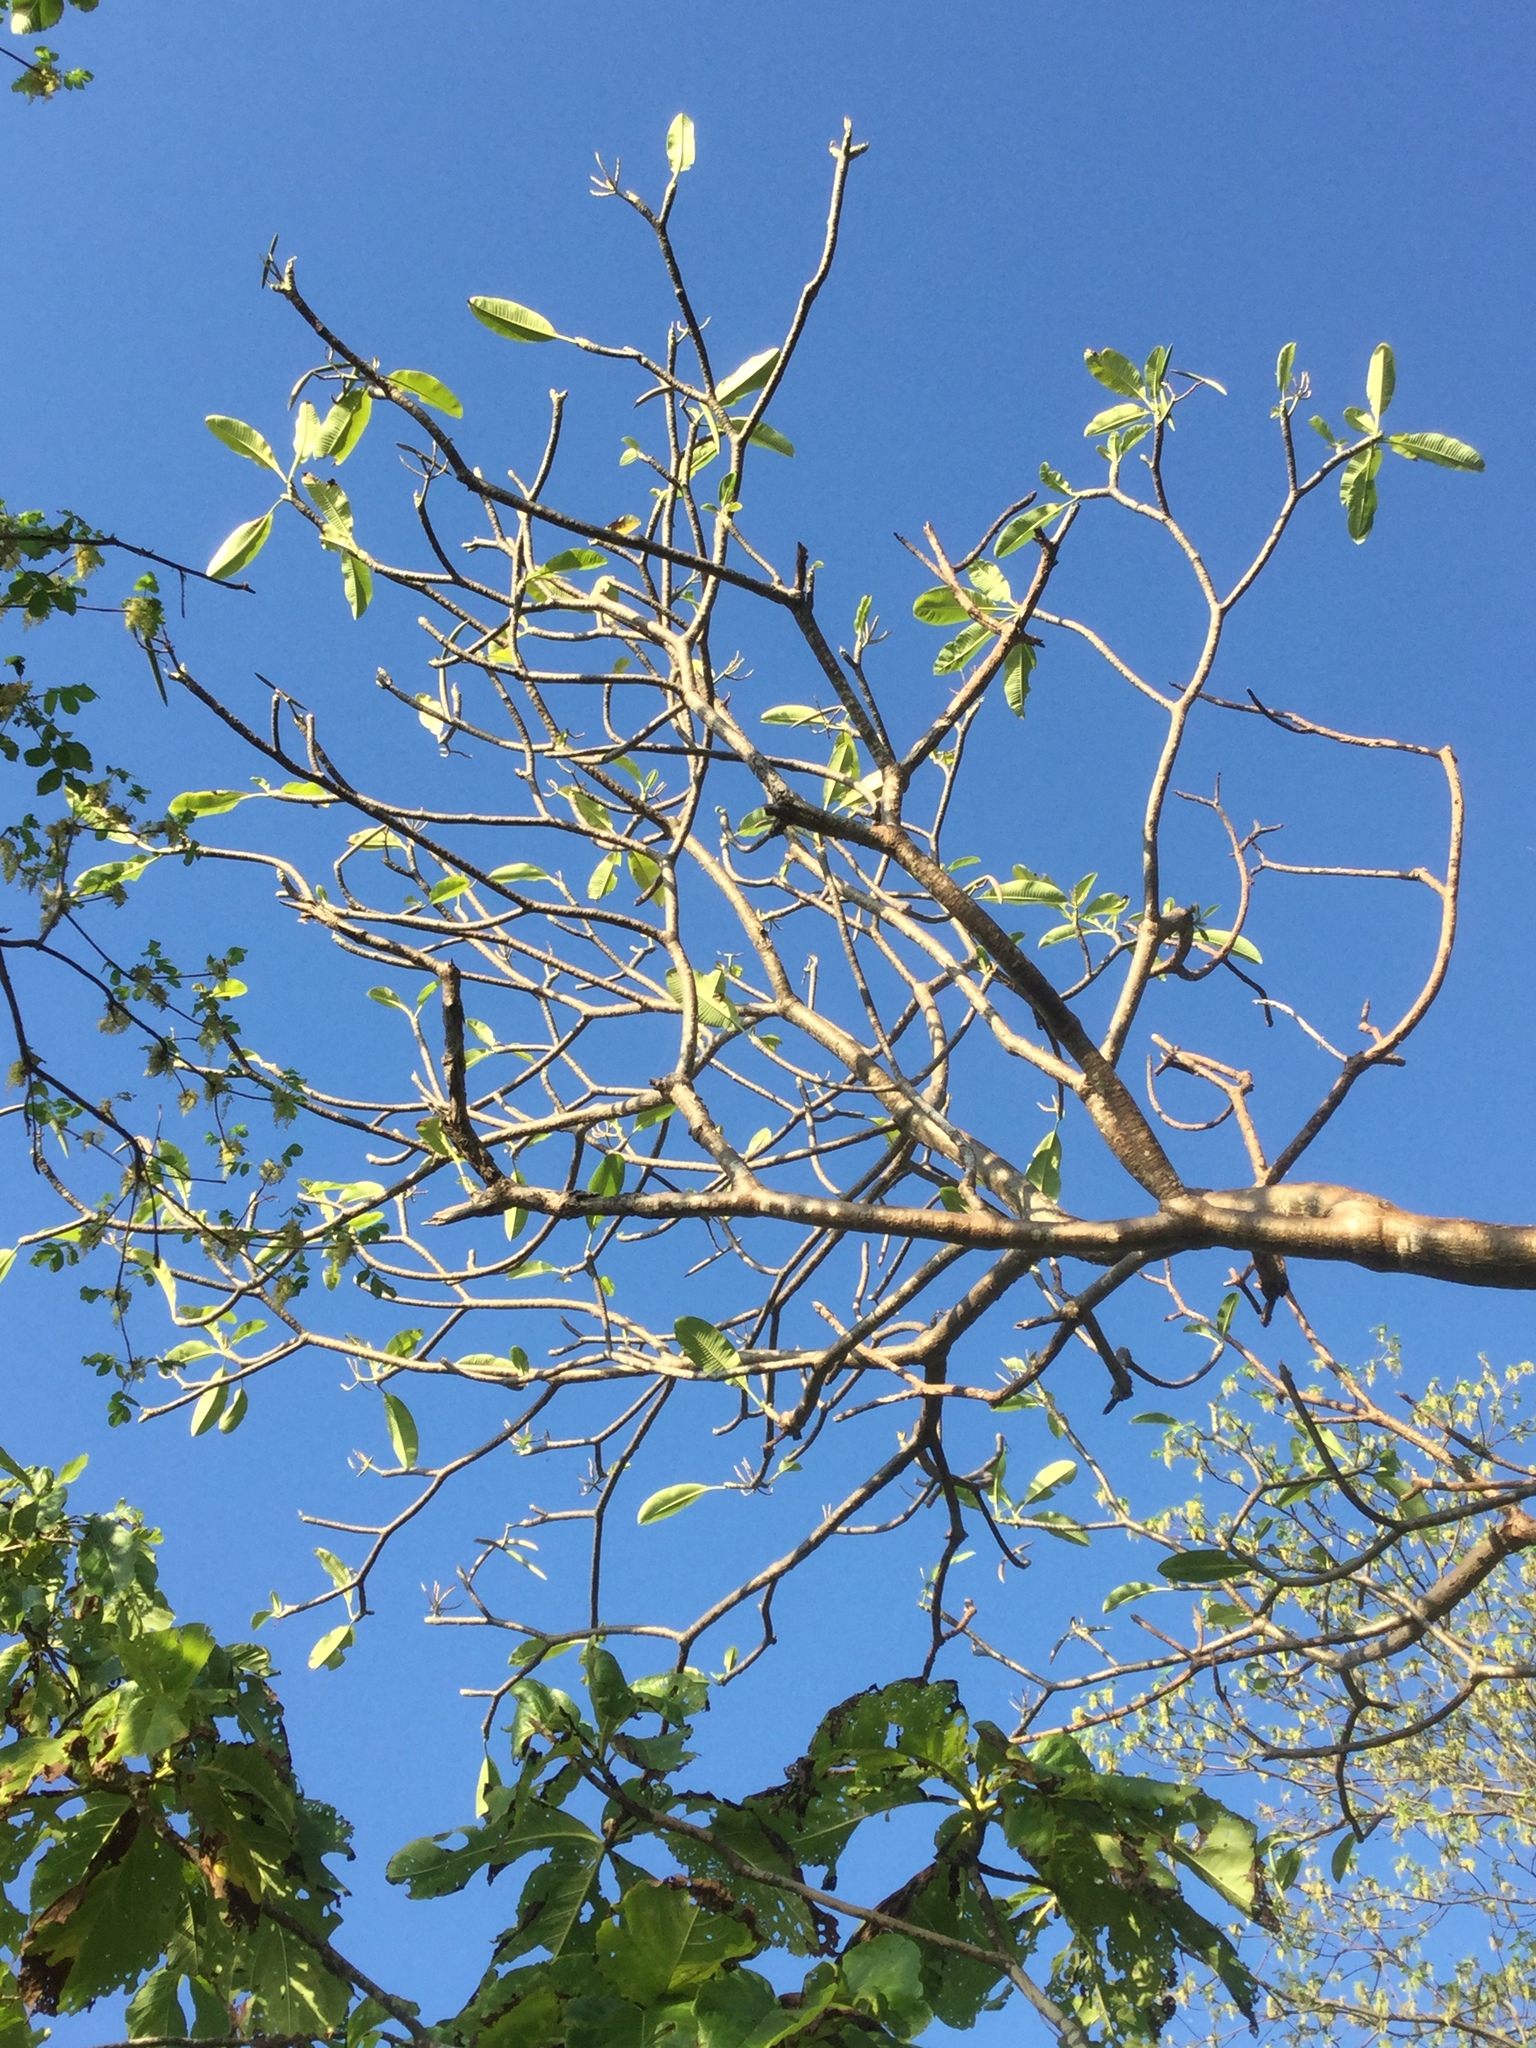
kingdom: Plantae
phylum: Tracheophyta
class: Magnoliopsida
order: Gentianales
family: Apocynaceae
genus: Plumeria
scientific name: Plumeria rubra
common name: Pagoda-tree
